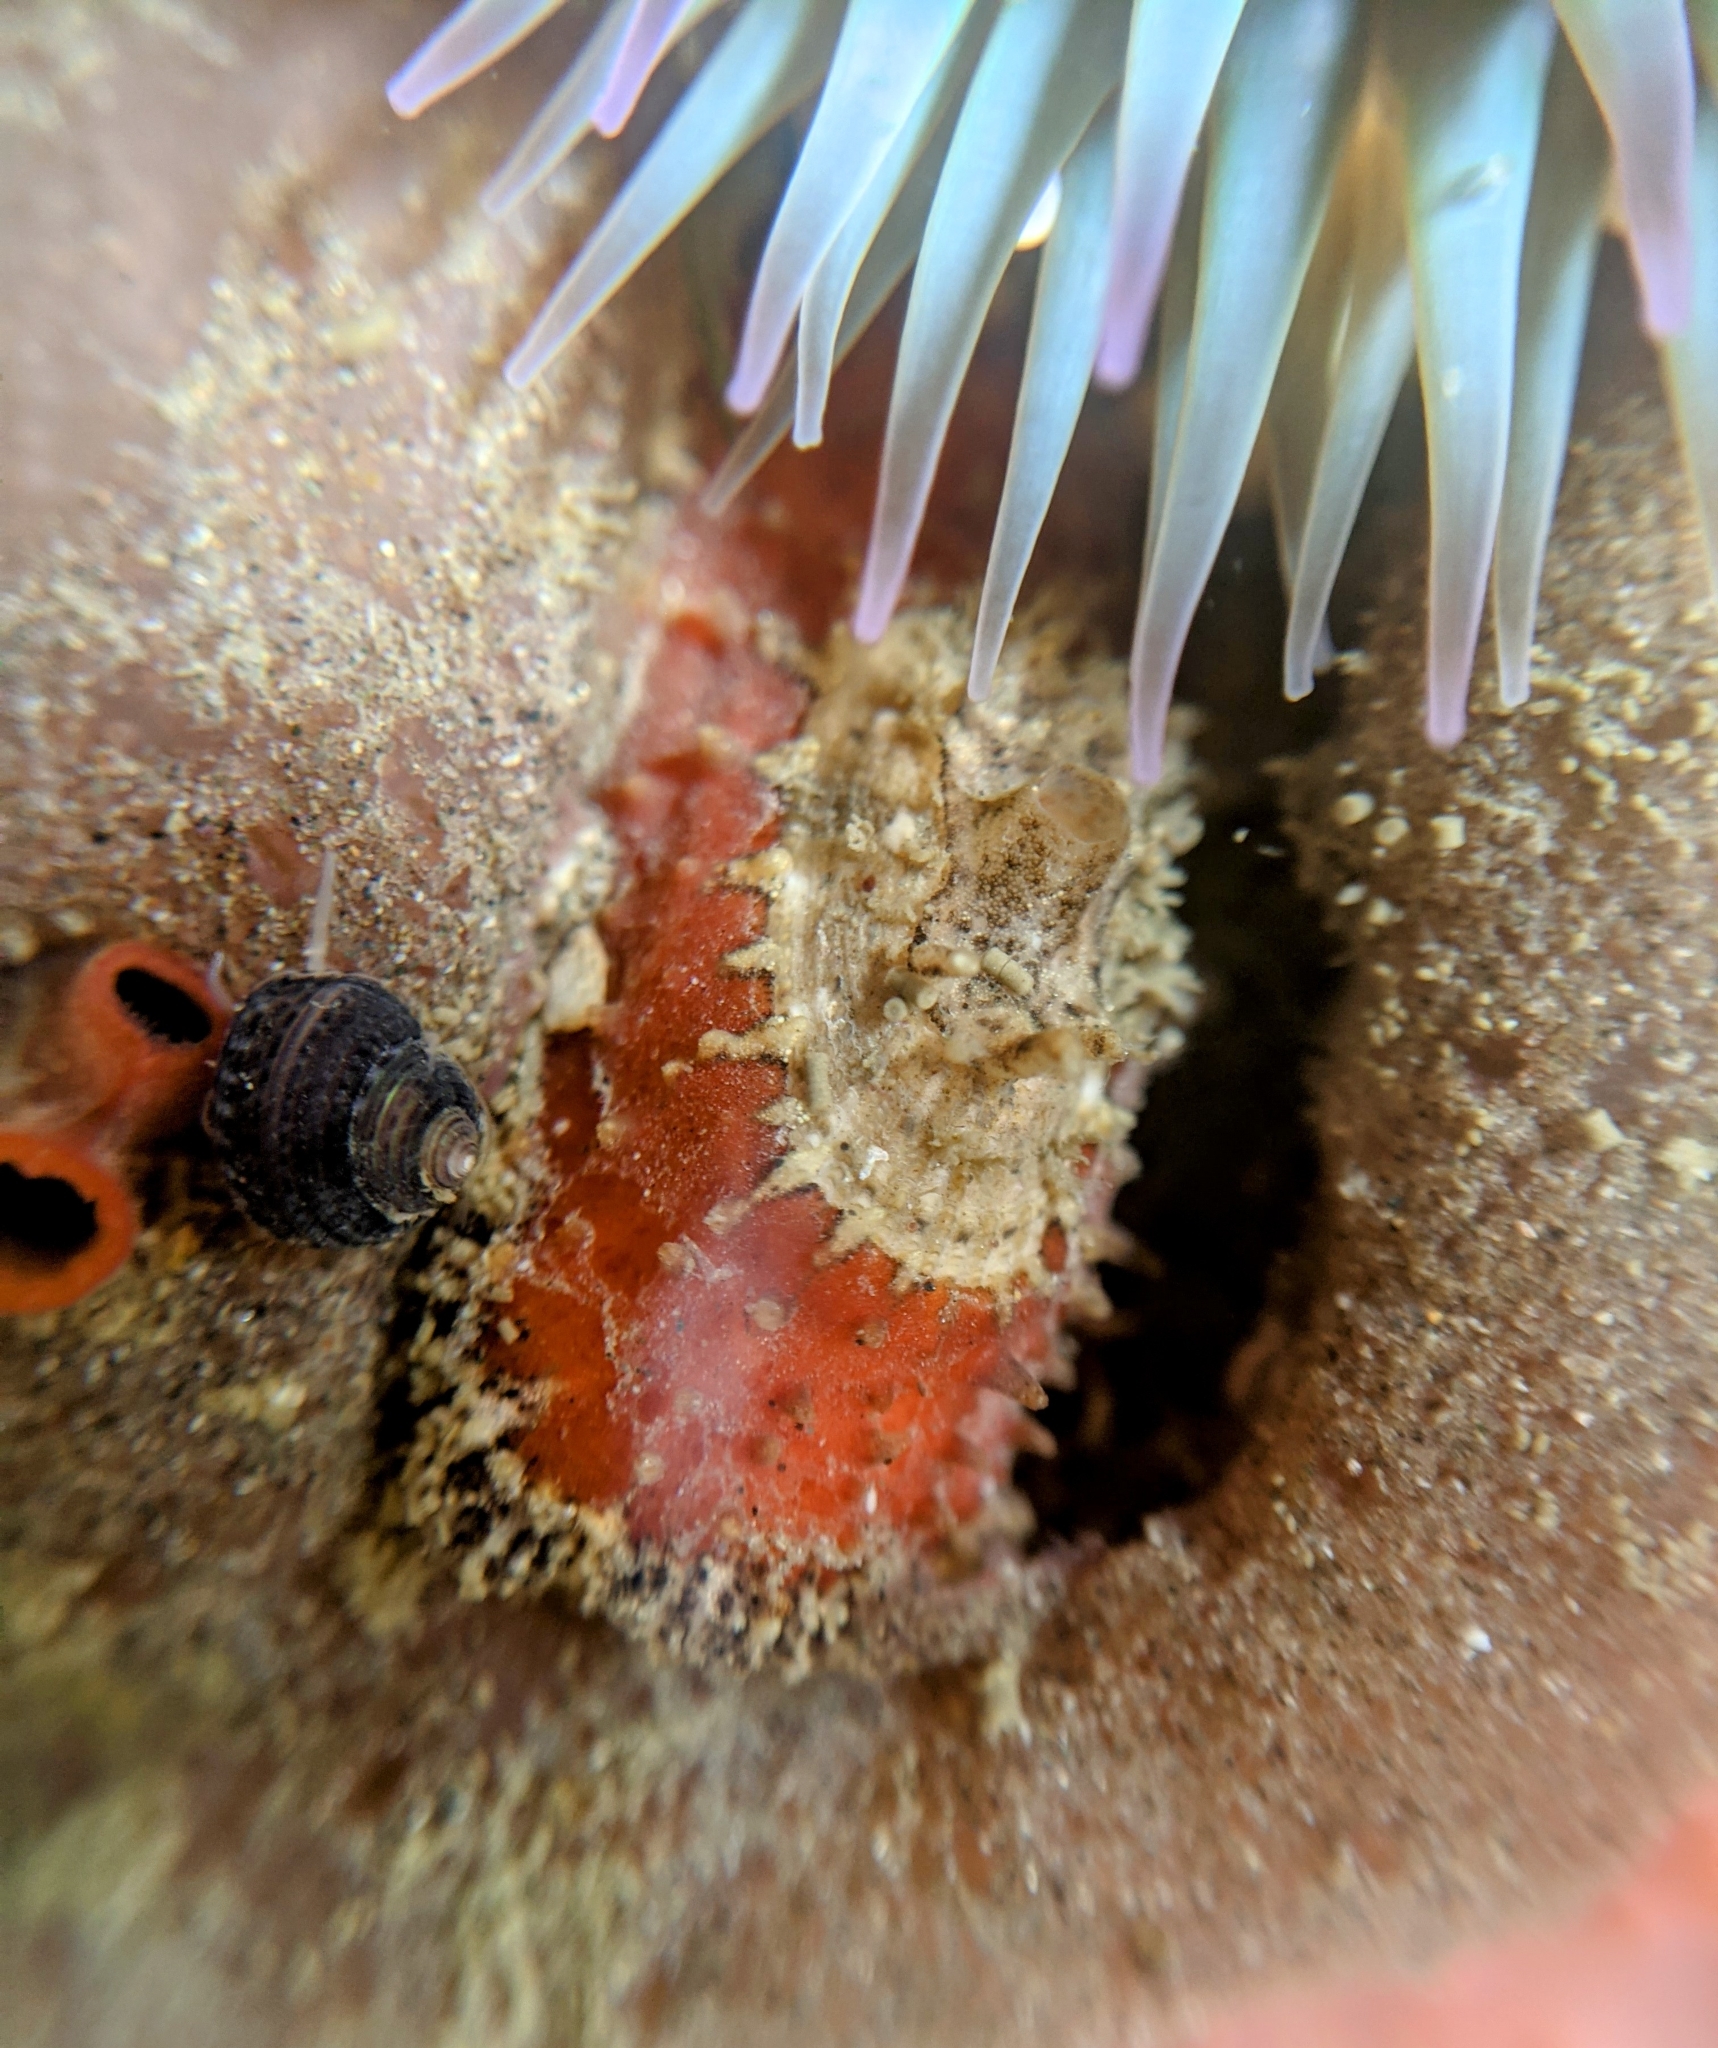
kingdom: Animalia
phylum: Mollusca
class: Gastropoda
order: Lepetellida
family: Fissurellidae
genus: Fissurellidea
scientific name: Fissurellidea bimaculata
